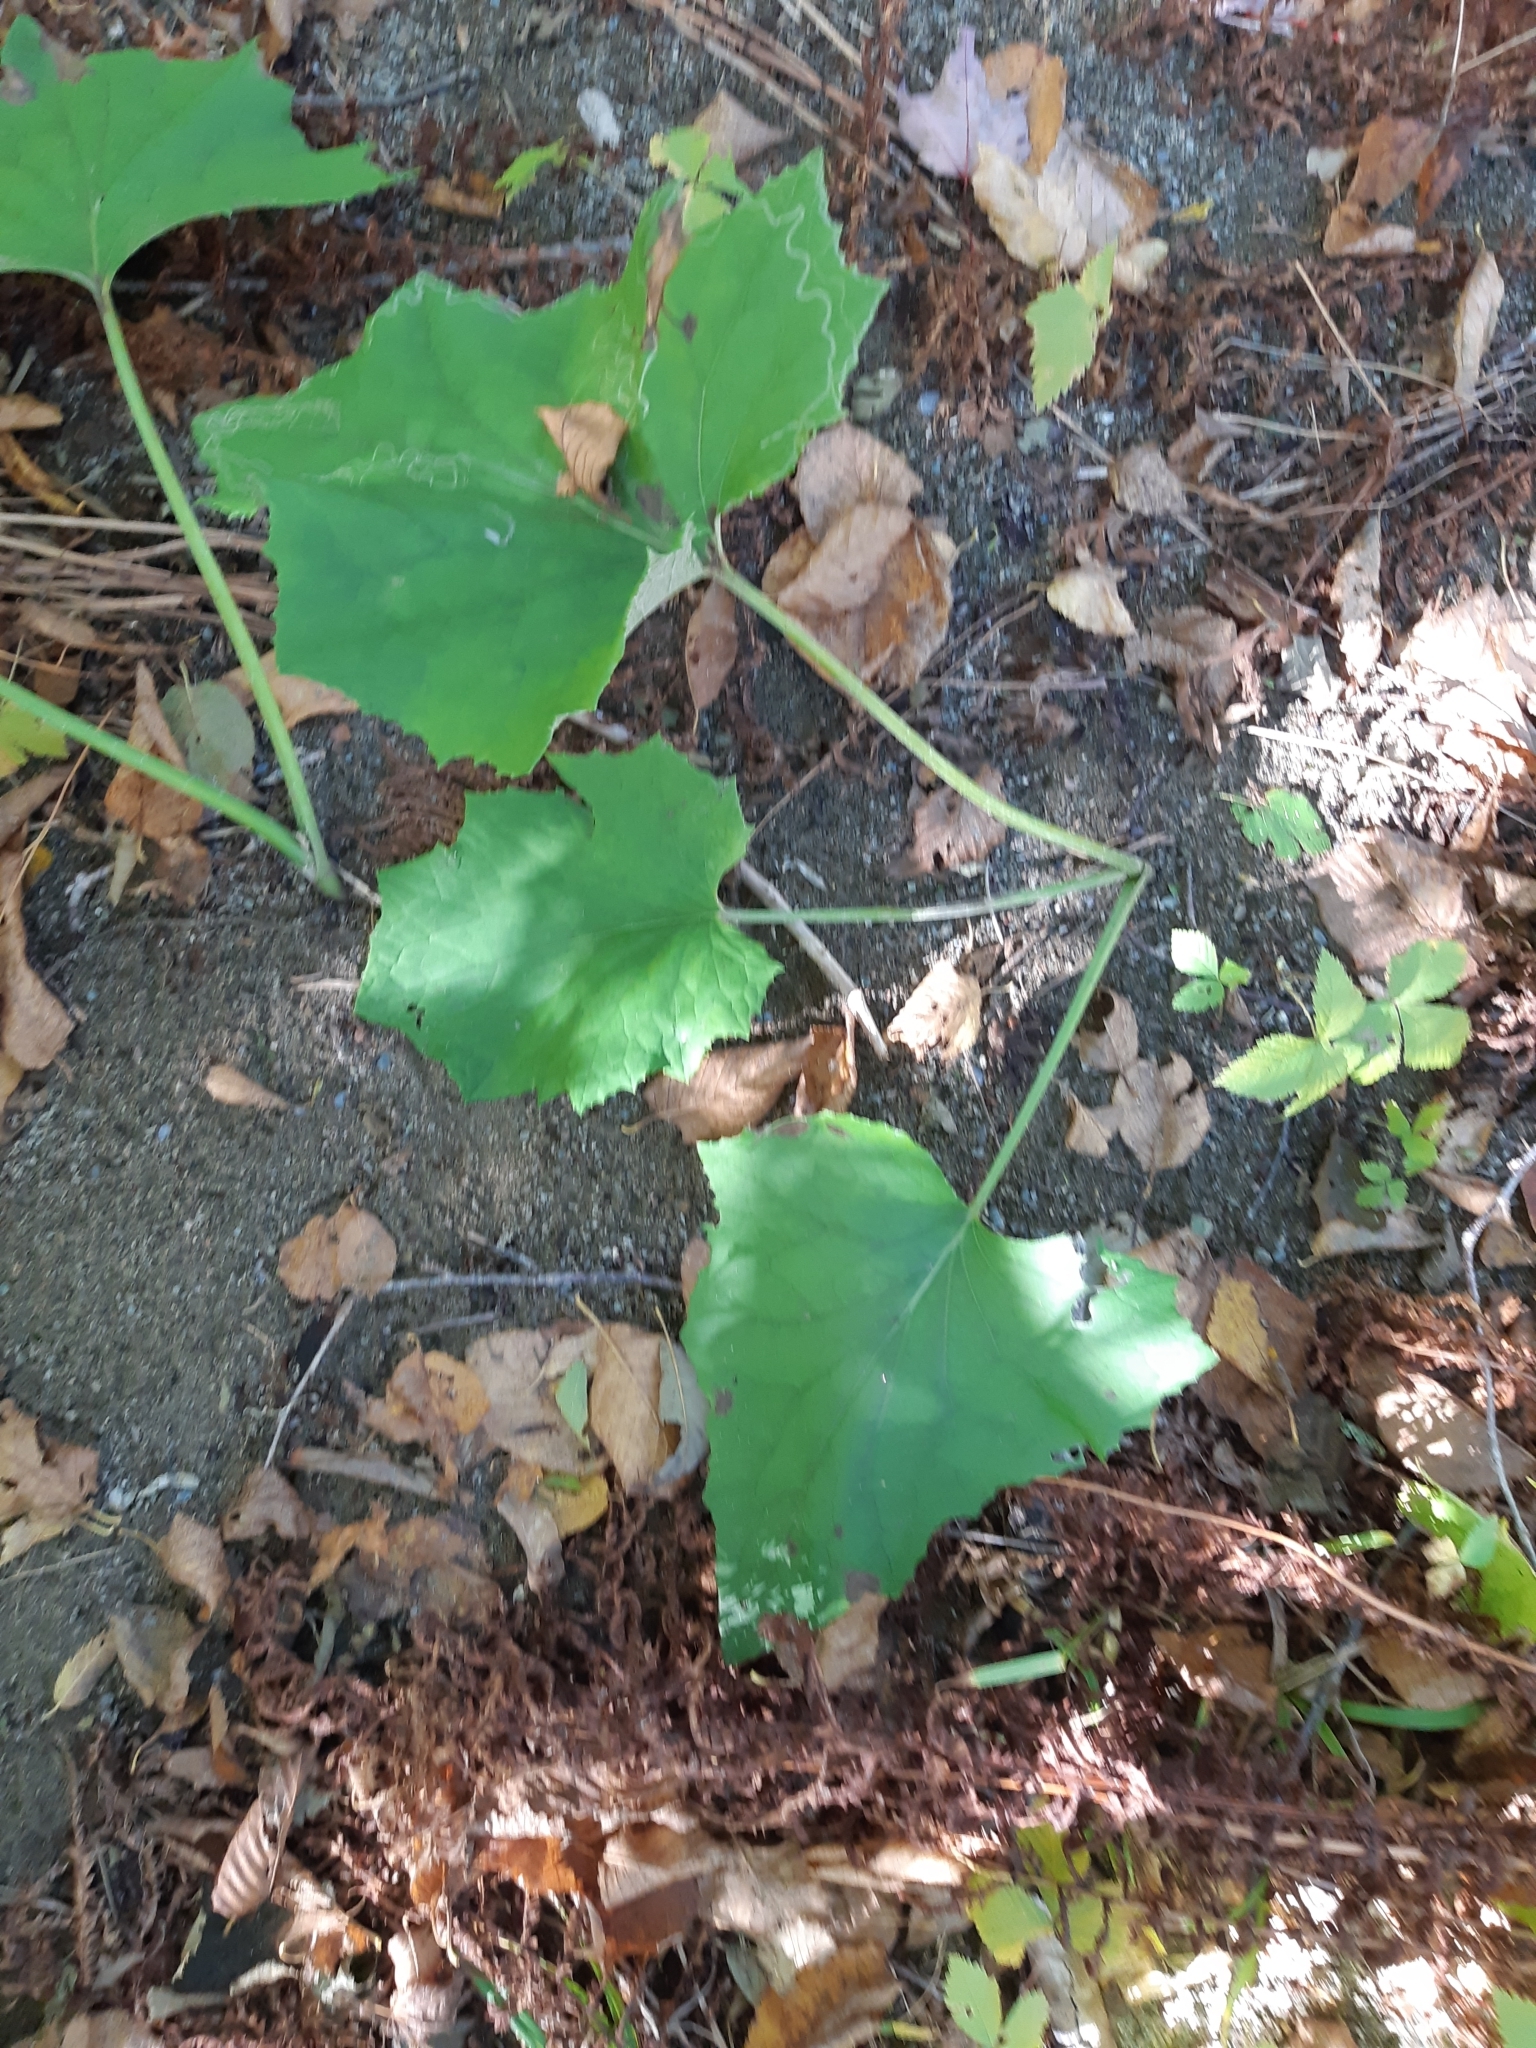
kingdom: Plantae
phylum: Tracheophyta
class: Magnoliopsida
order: Asterales
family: Asteraceae
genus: Tussilago
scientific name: Tussilago farfara
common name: Coltsfoot
